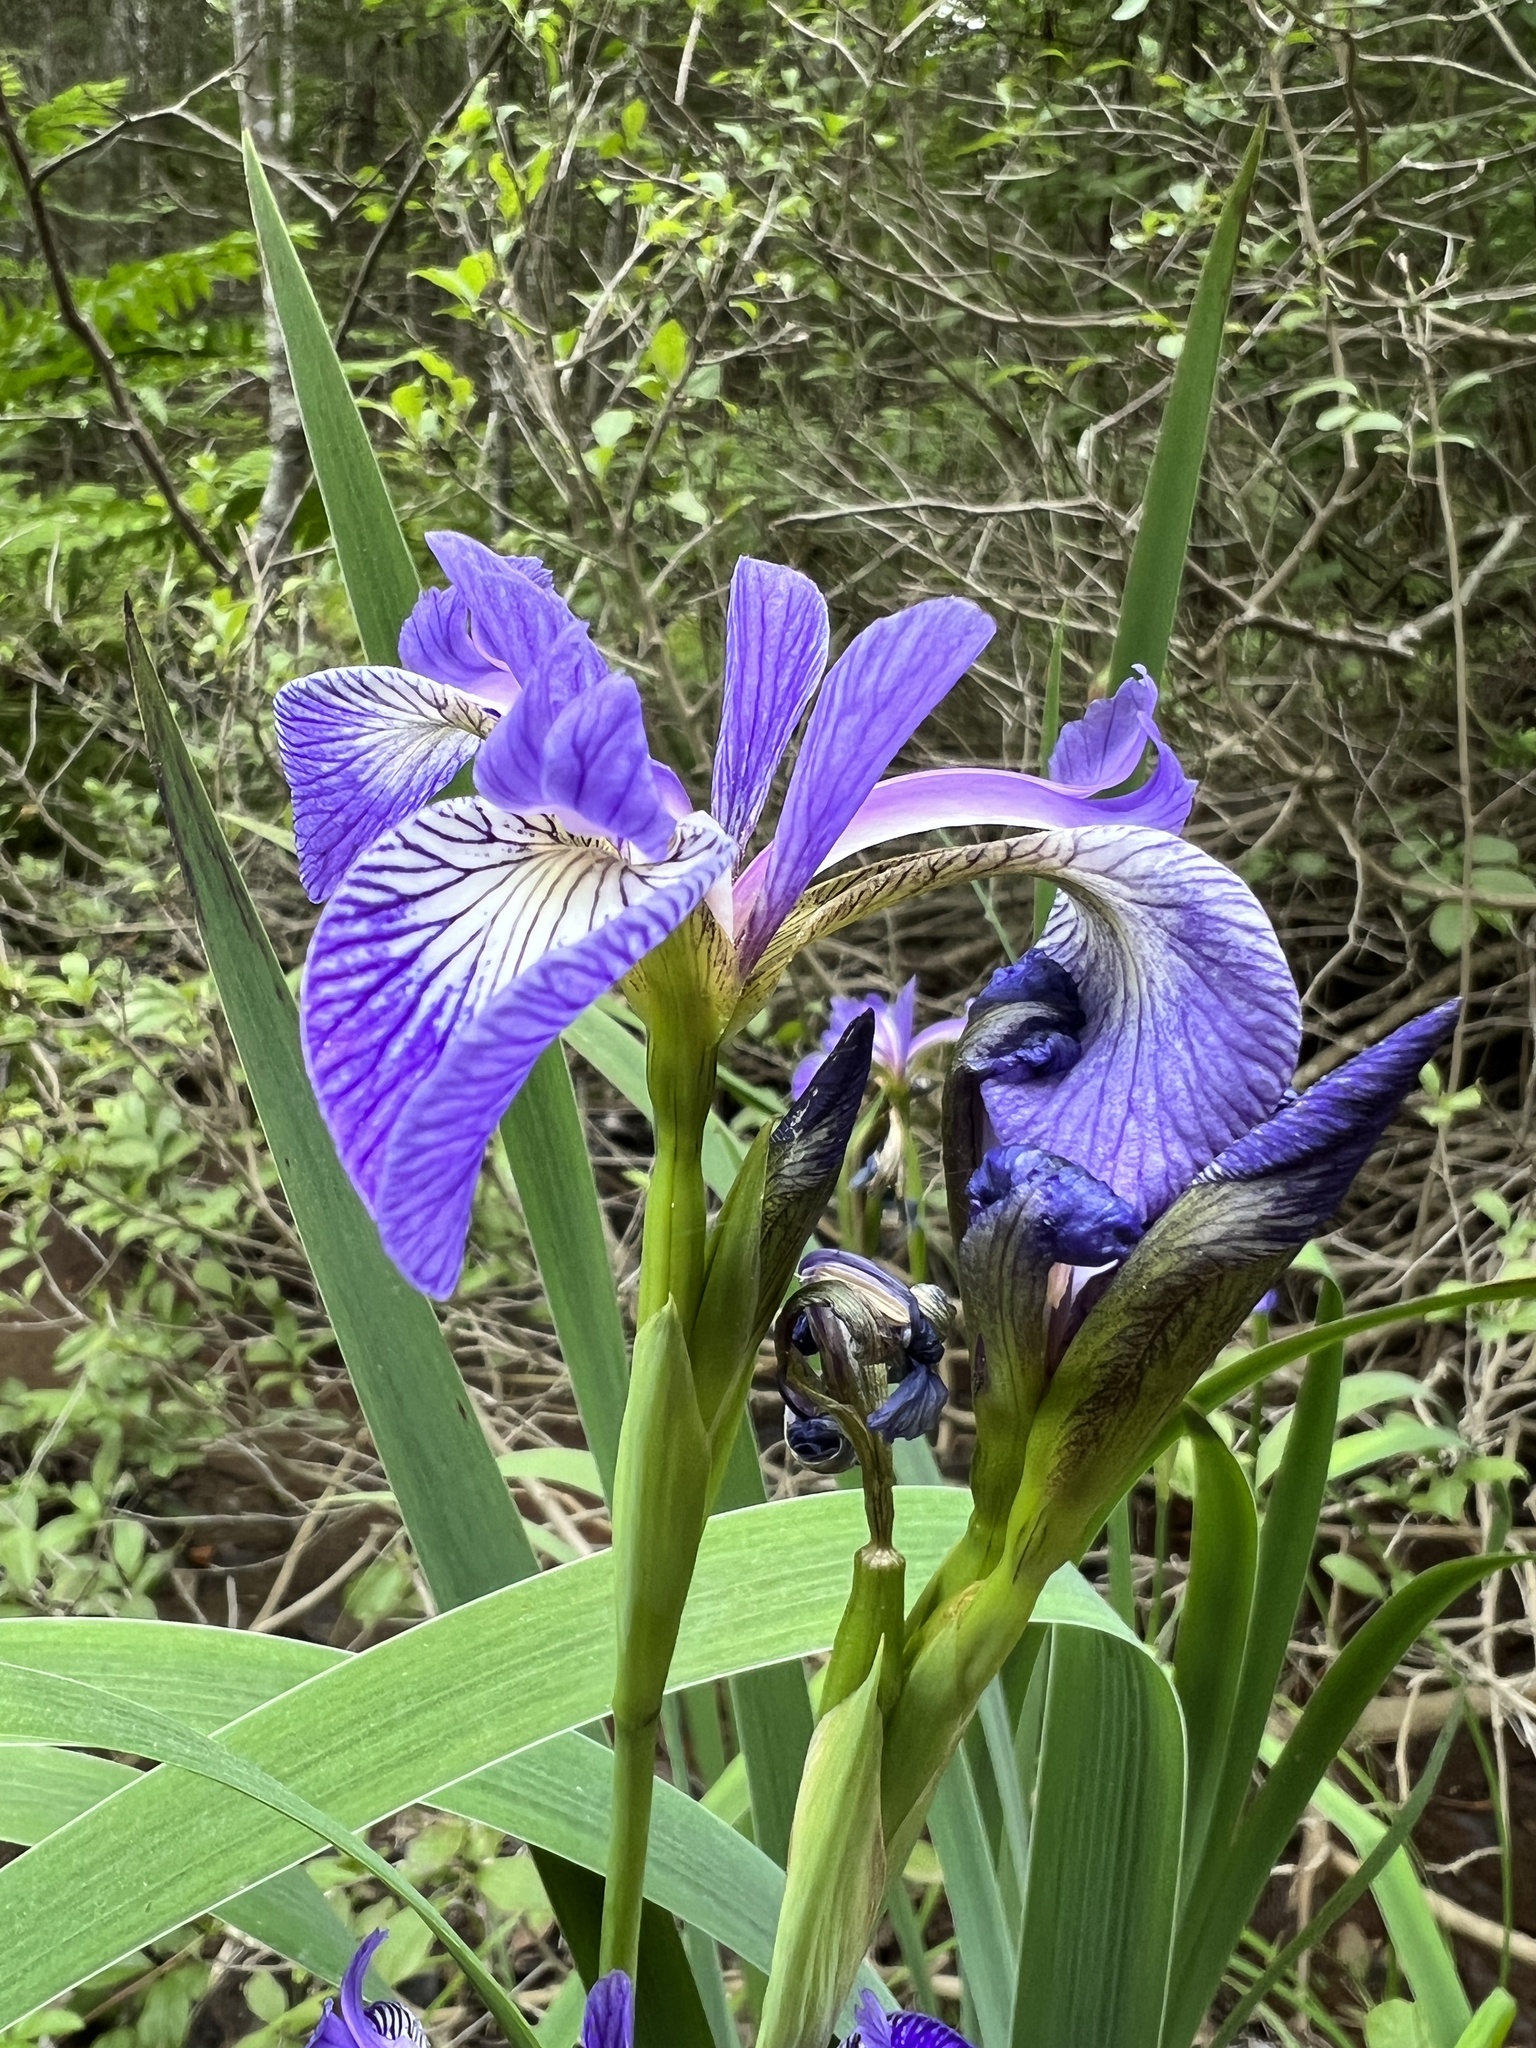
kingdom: Plantae
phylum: Tracheophyta
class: Liliopsida
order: Asparagales
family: Iridaceae
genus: Iris
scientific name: Iris versicolor
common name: Purple iris
